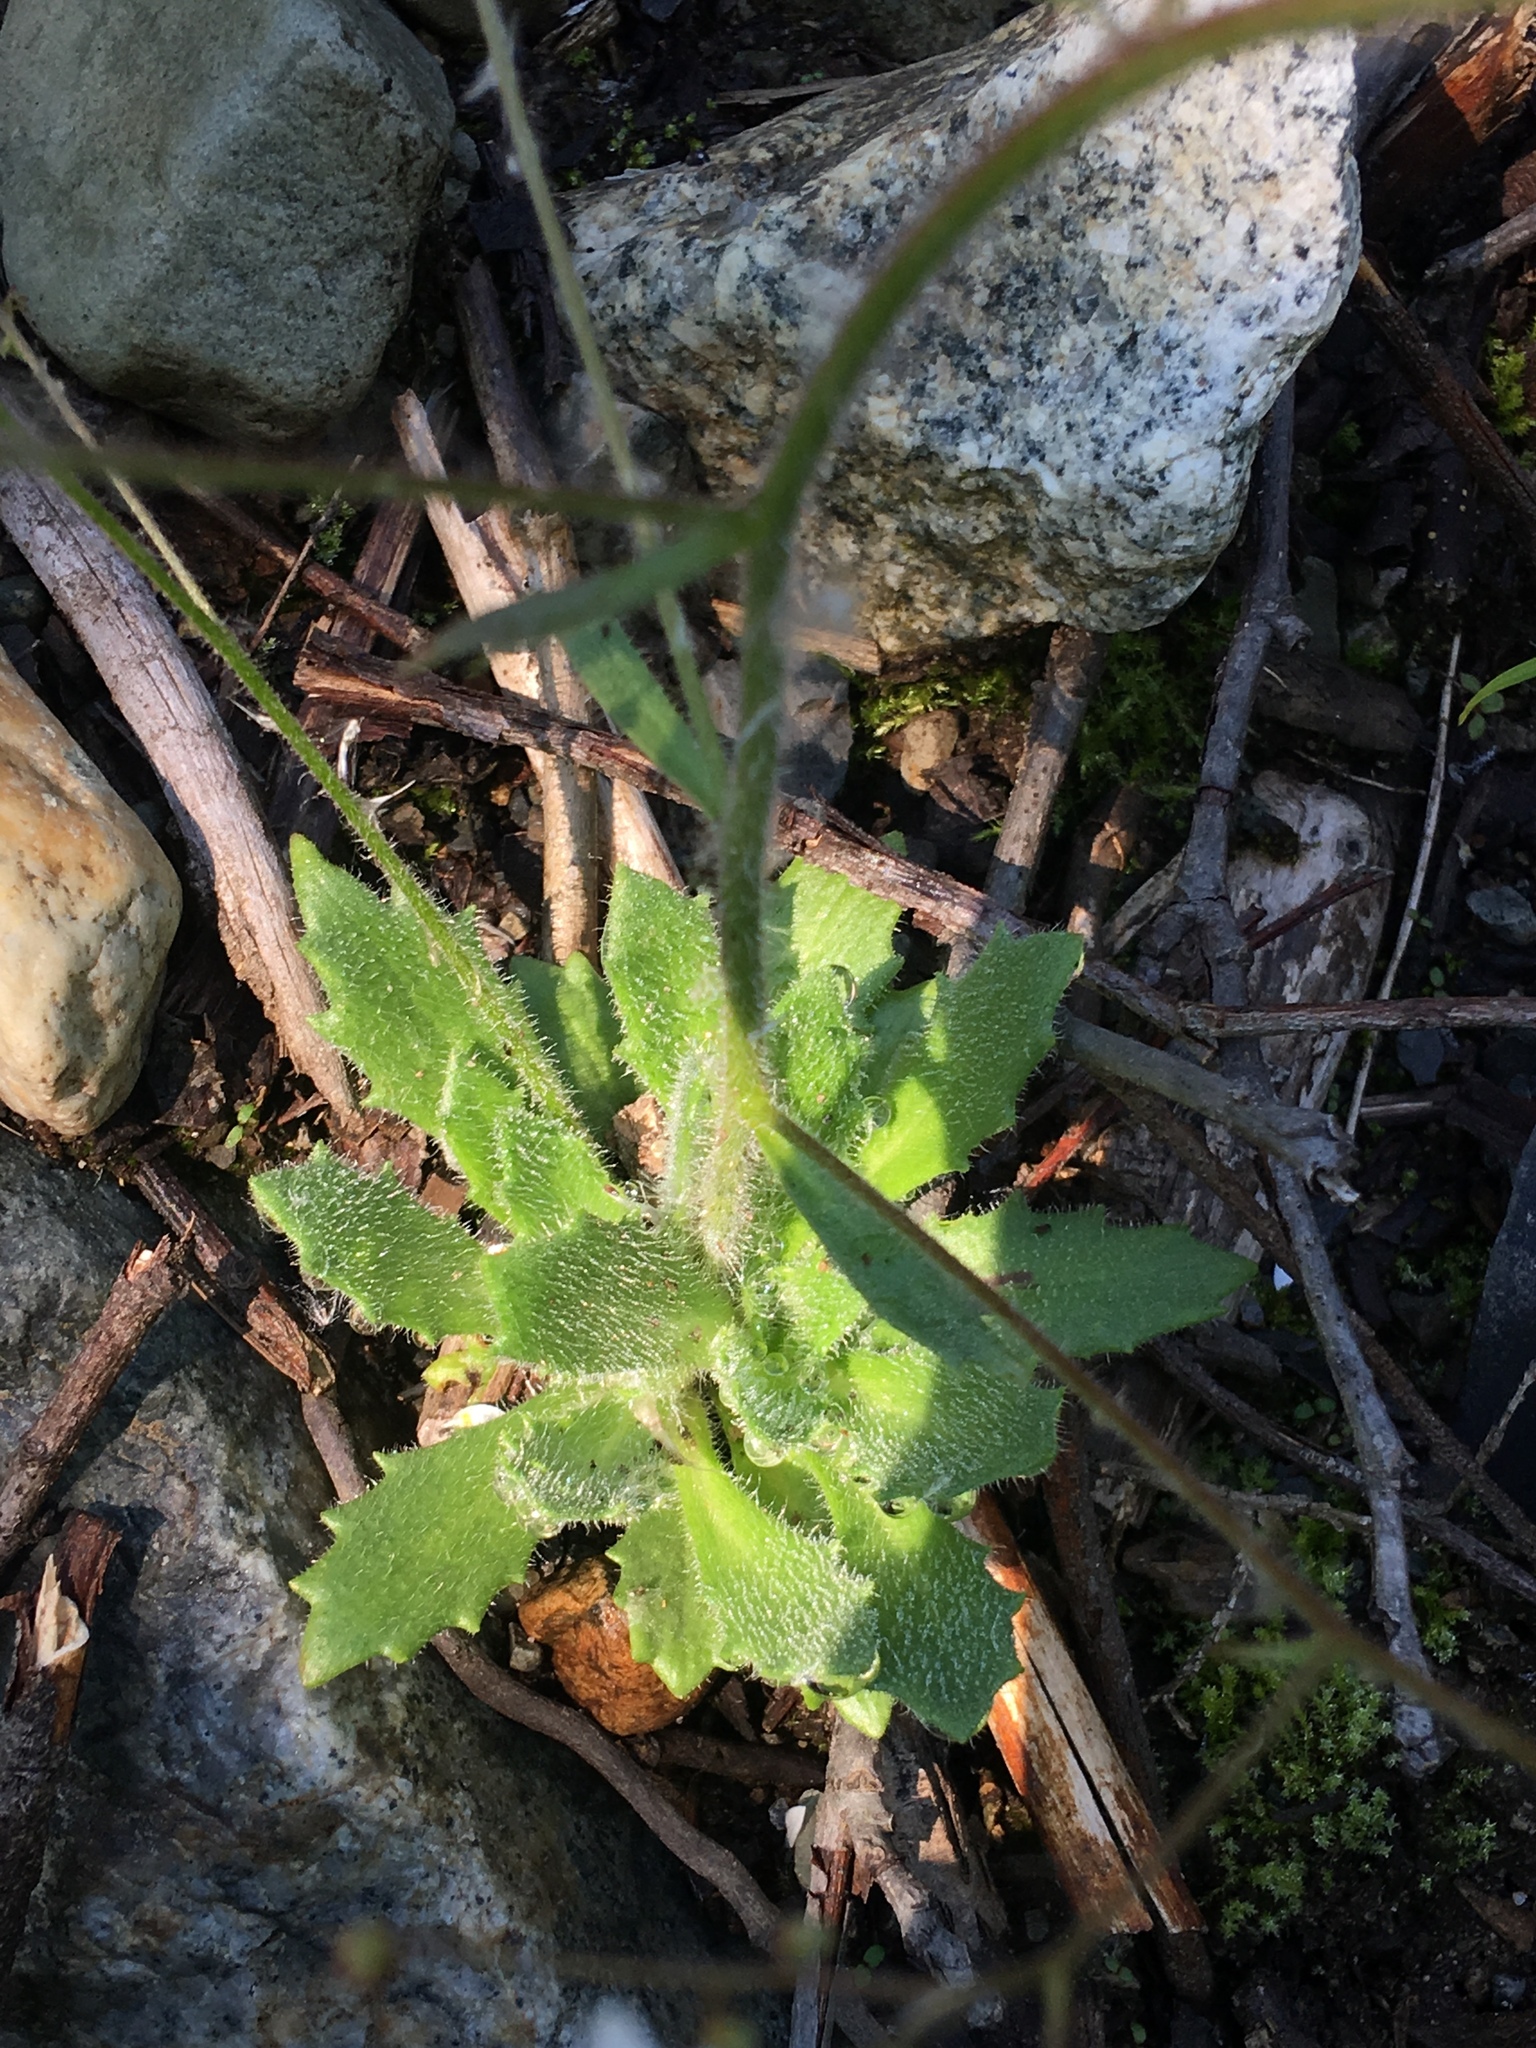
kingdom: Plantae
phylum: Tracheophyta
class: Magnoliopsida
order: Saxifragales
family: Saxifragaceae
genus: Micranthes
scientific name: Micranthes ferruginea
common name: Rusty saxifrage
